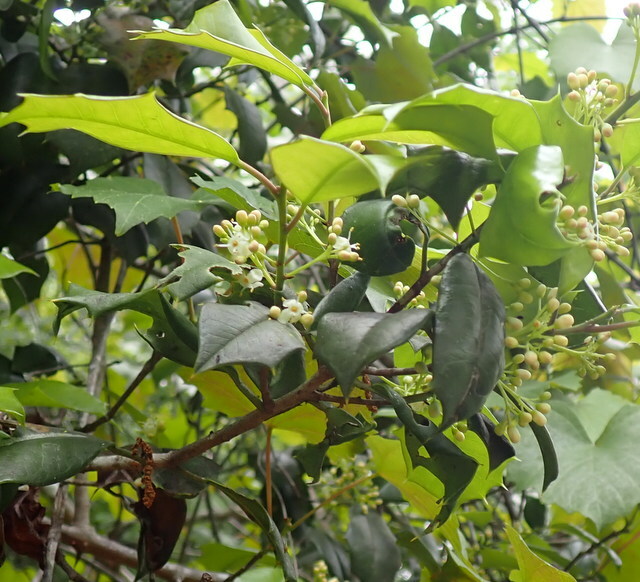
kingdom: Plantae
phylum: Tracheophyta
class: Magnoliopsida
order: Aquifoliales
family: Aquifoliaceae
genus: Ilex
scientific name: Ilex opaca
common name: American holly
